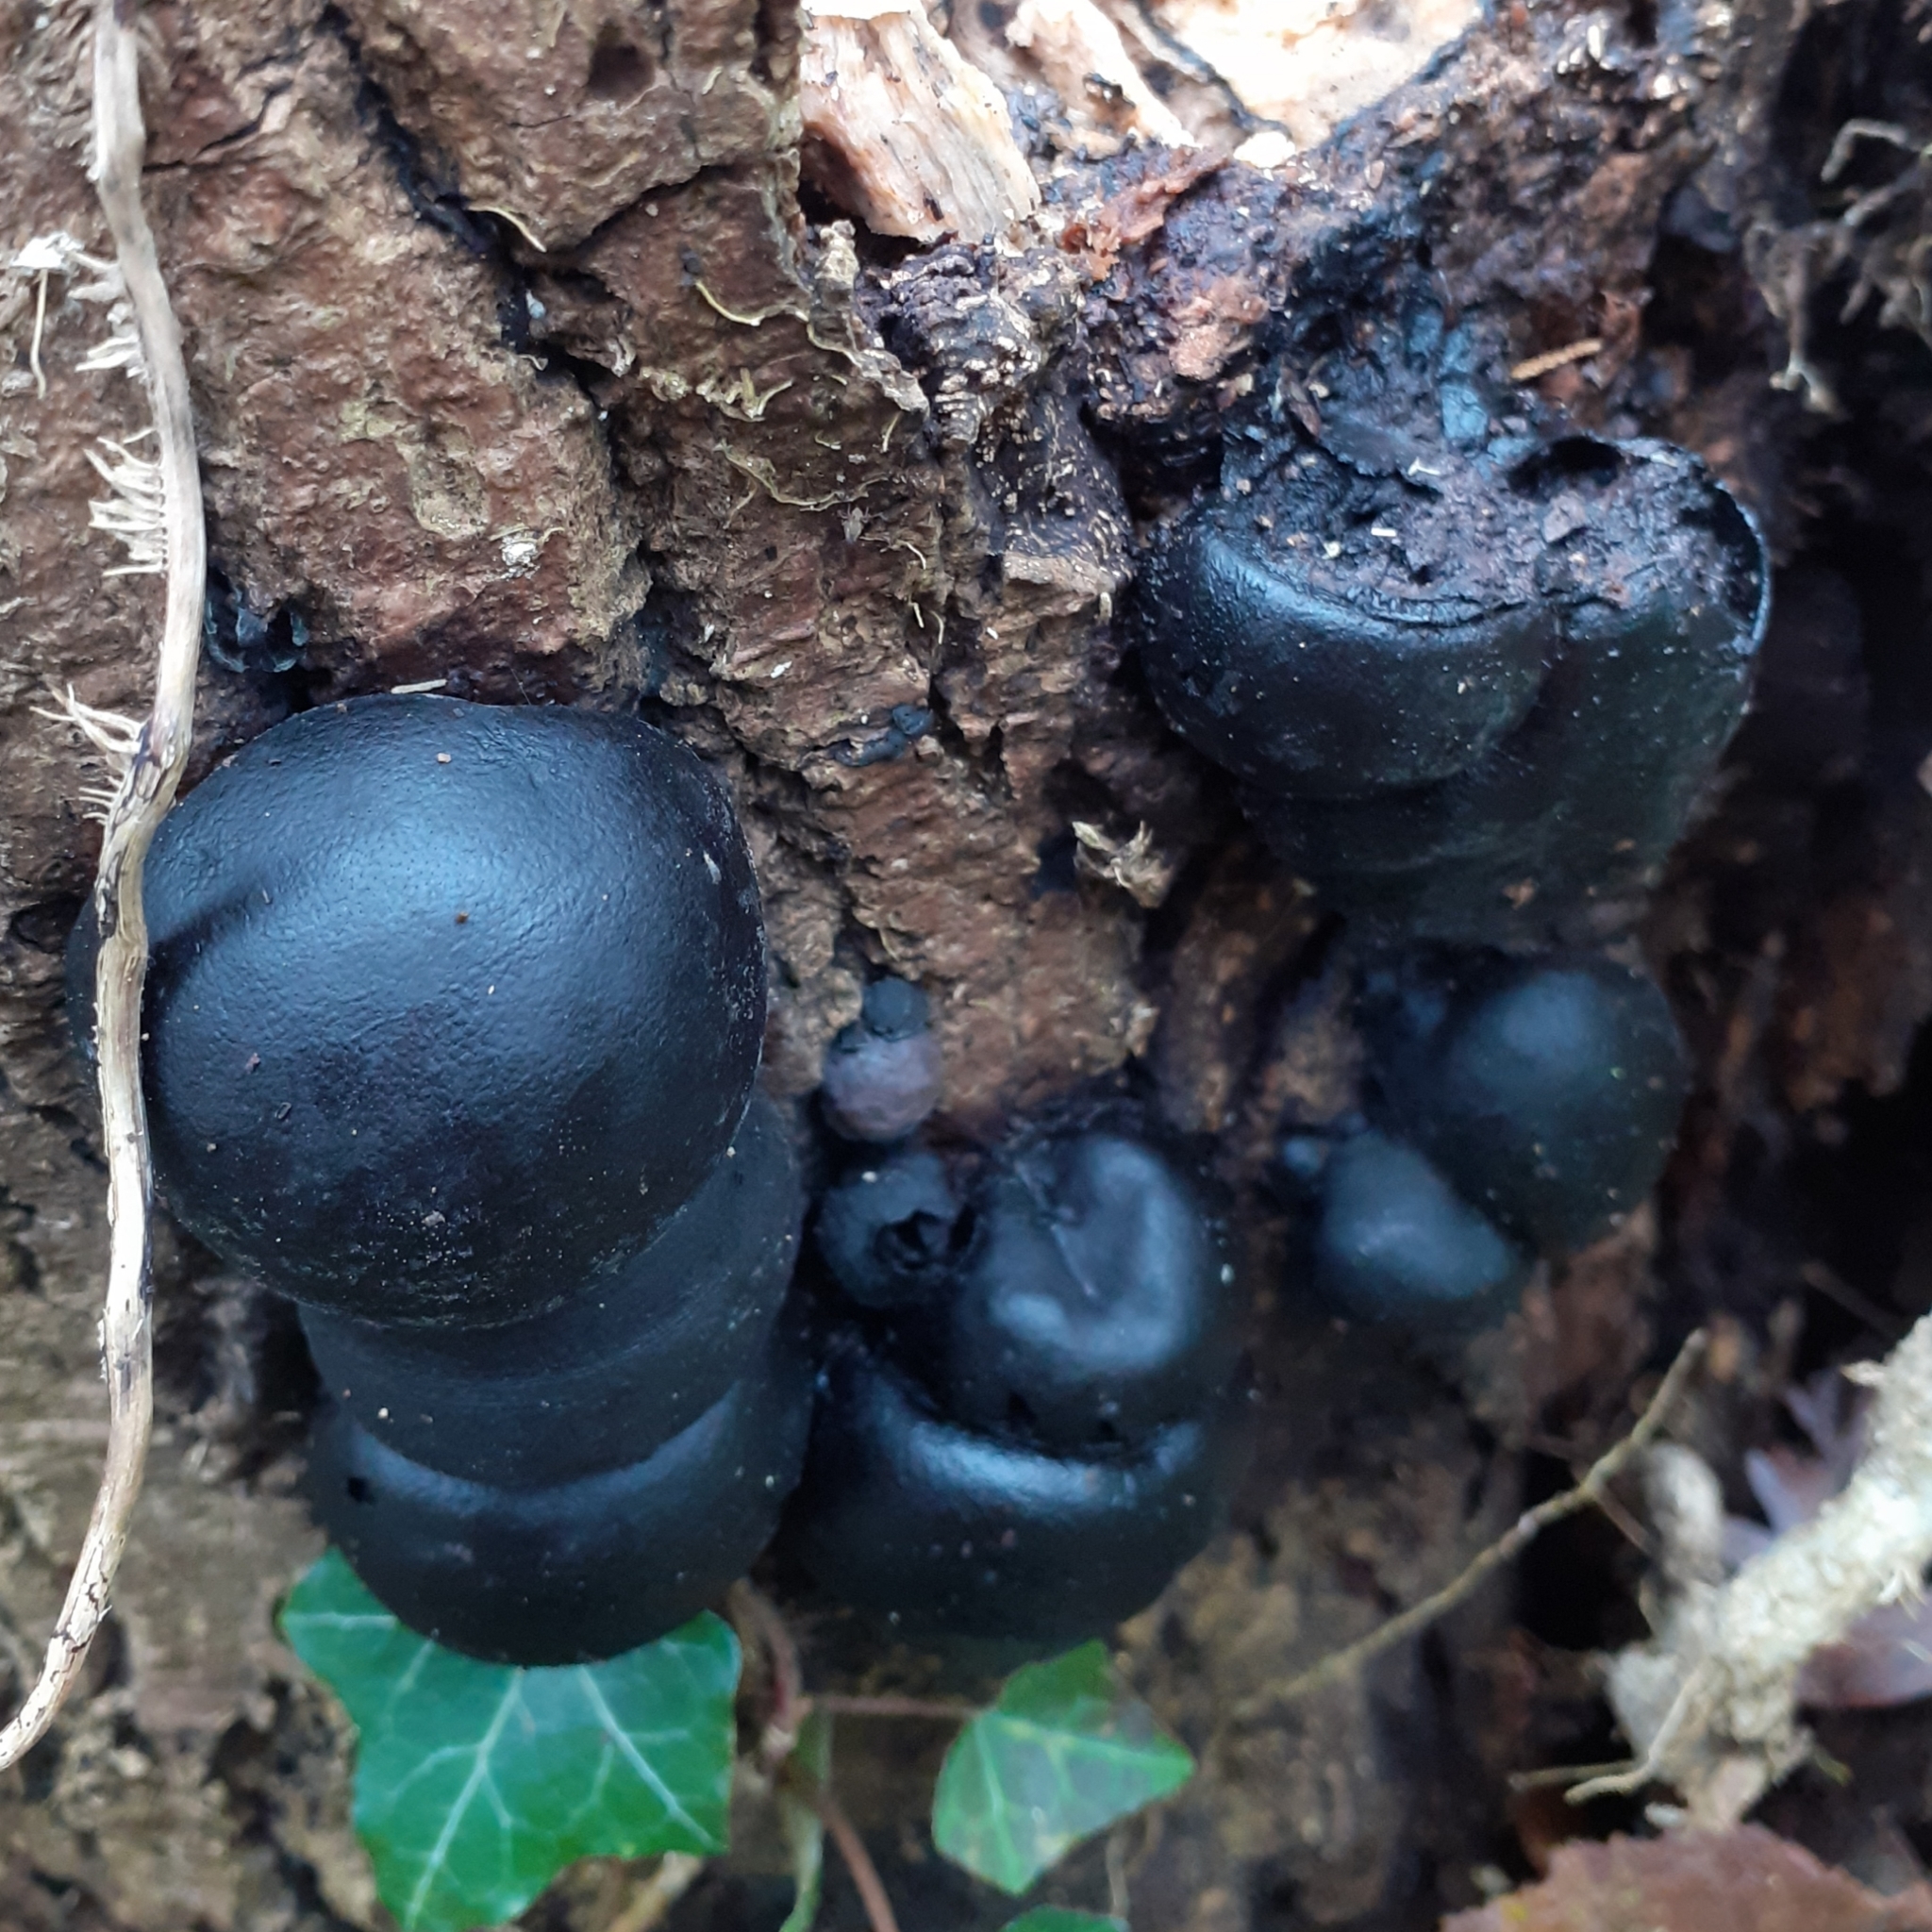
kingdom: Fungi
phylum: Ascomycota
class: Sordariomycetes
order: Xylariales
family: Hypoxylaceae
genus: Daldinia
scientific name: Daldinia concentrica
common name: Cramp balls
